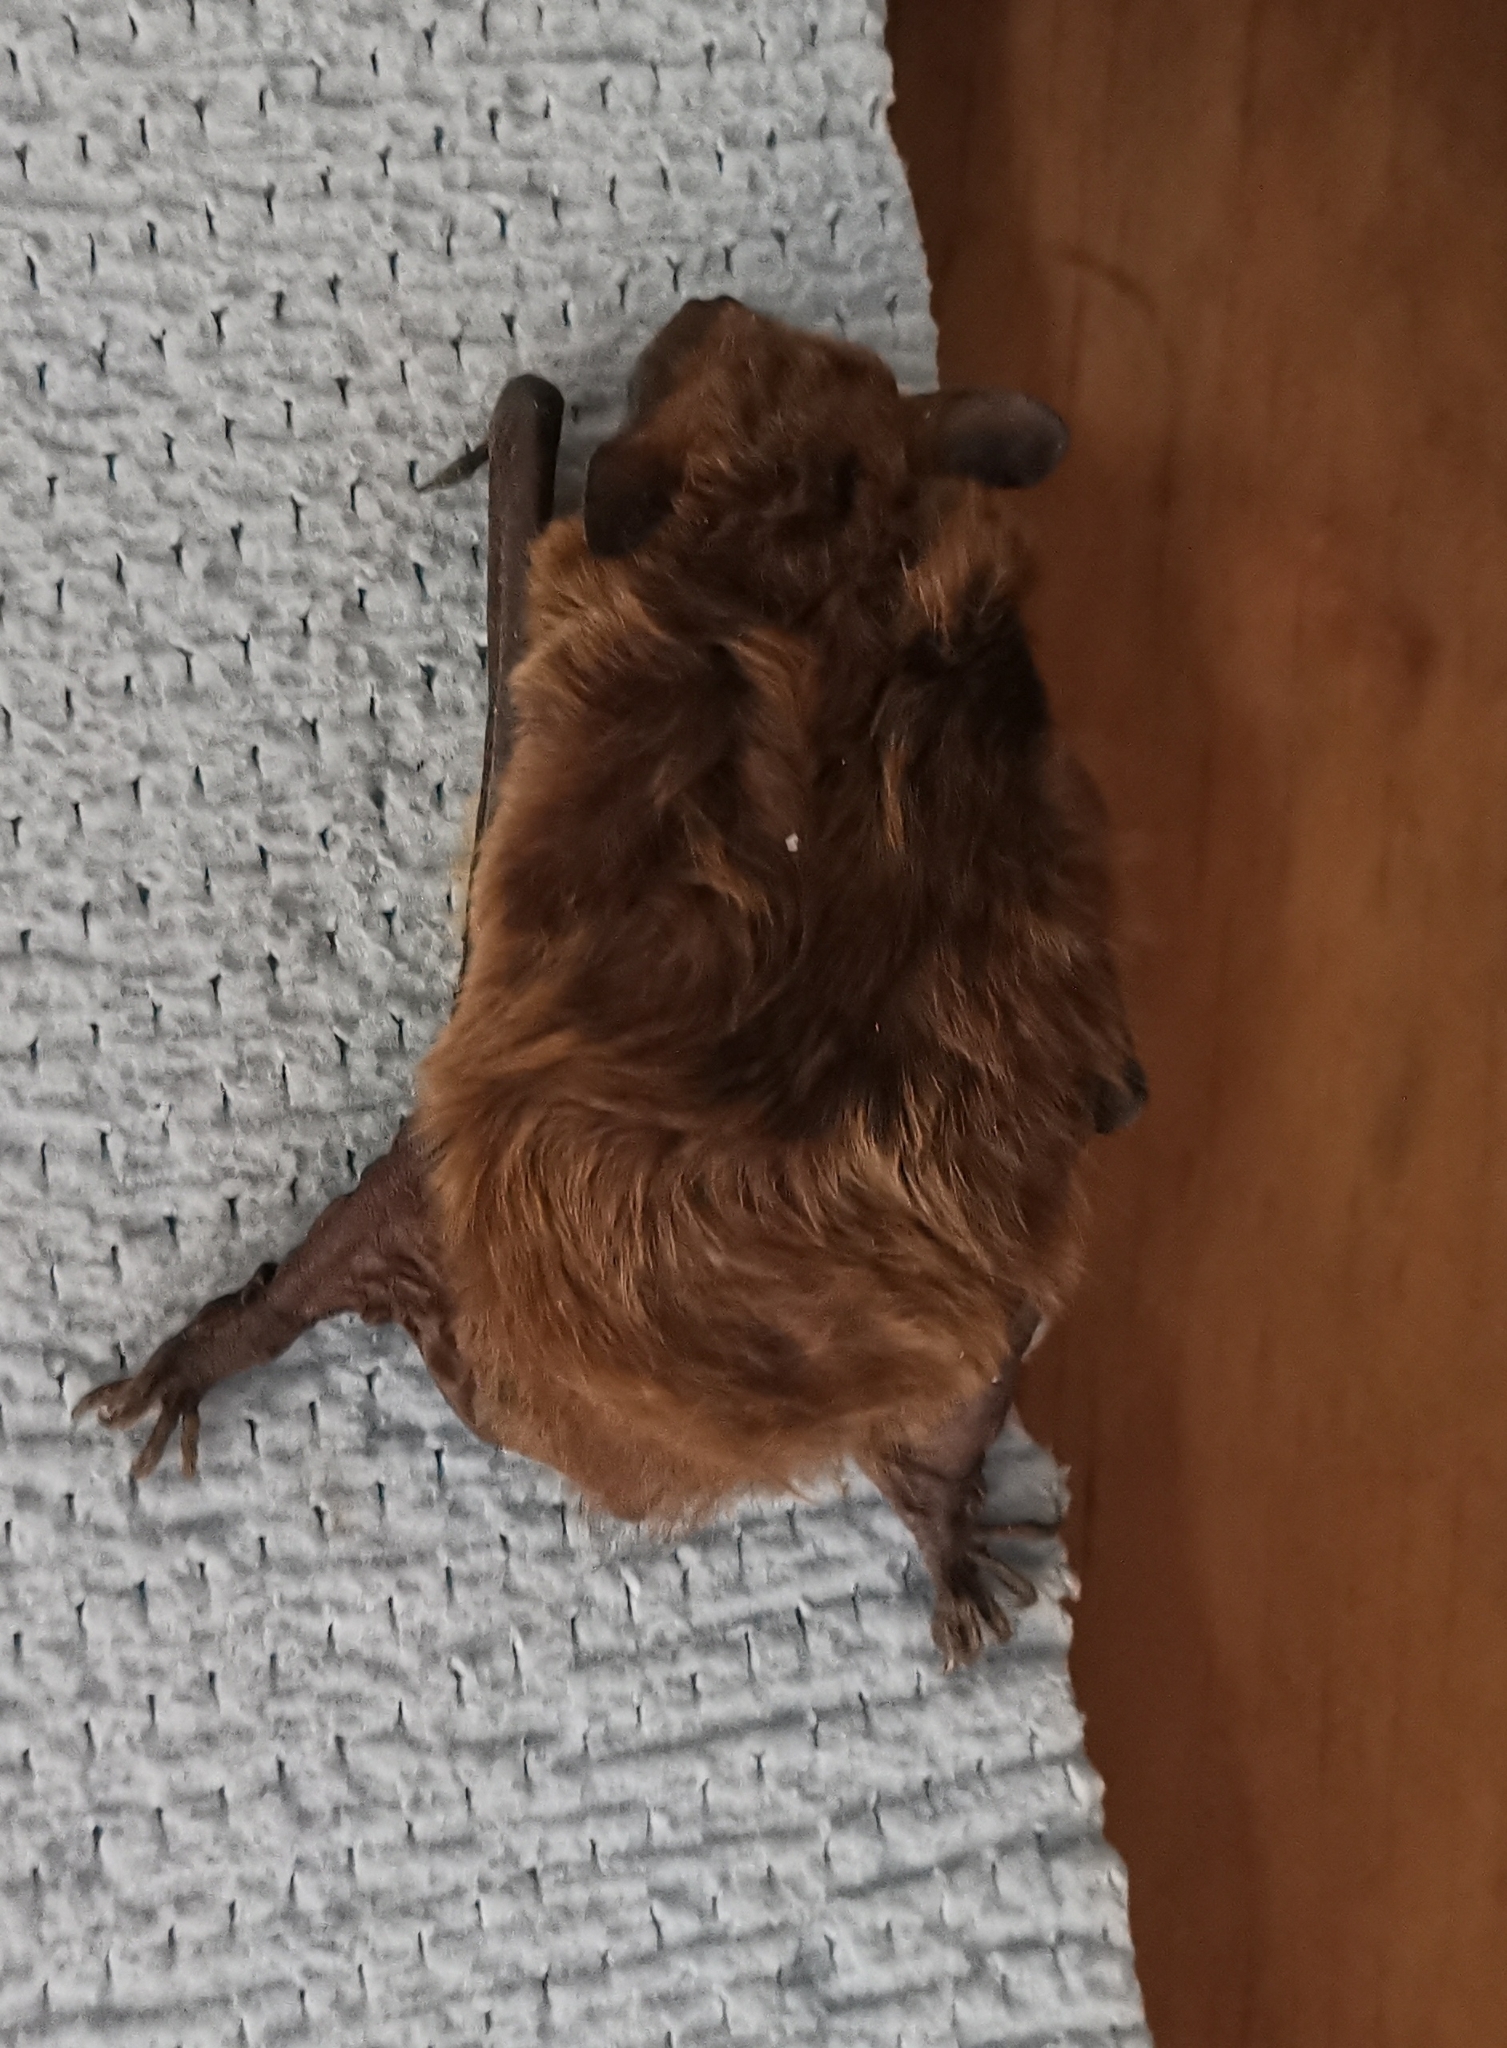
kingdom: Animalia
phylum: Chordata
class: Mammalia
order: Chiroptera
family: Vespertilionidae
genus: Eptesicus
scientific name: Eptesicus serotinus
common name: Serotine
